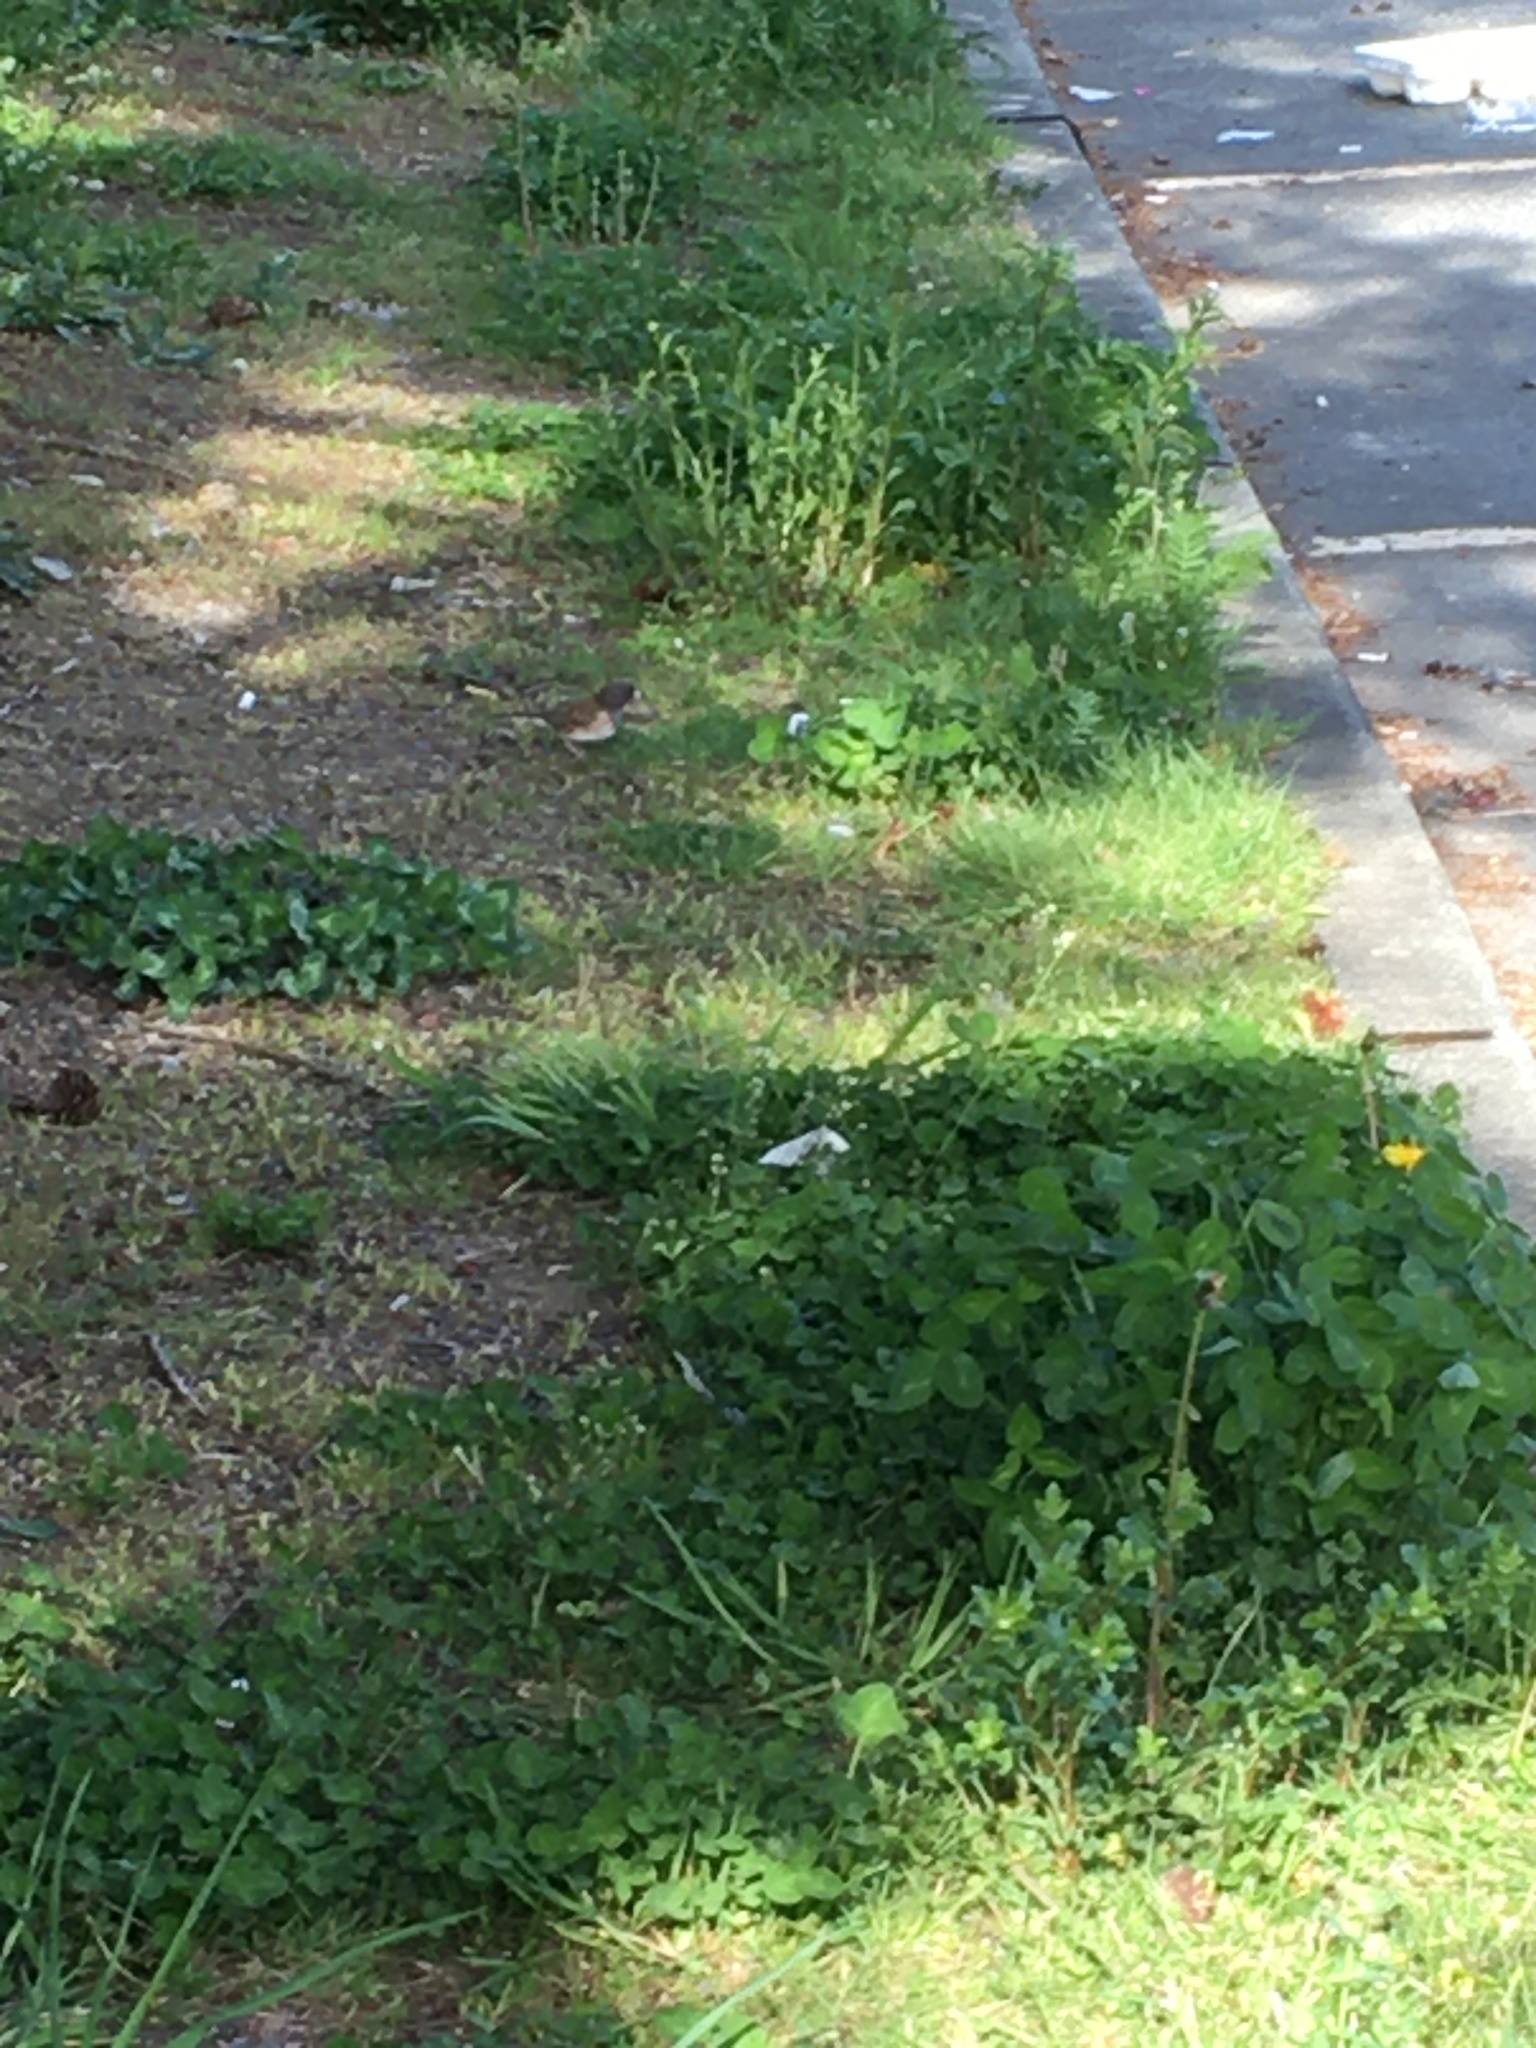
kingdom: Animalia
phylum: Chordata
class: Aves
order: Passeriformes
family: Passerellidae
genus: Junco
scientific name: Junco hyemalis
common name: Dark-eyed junco
